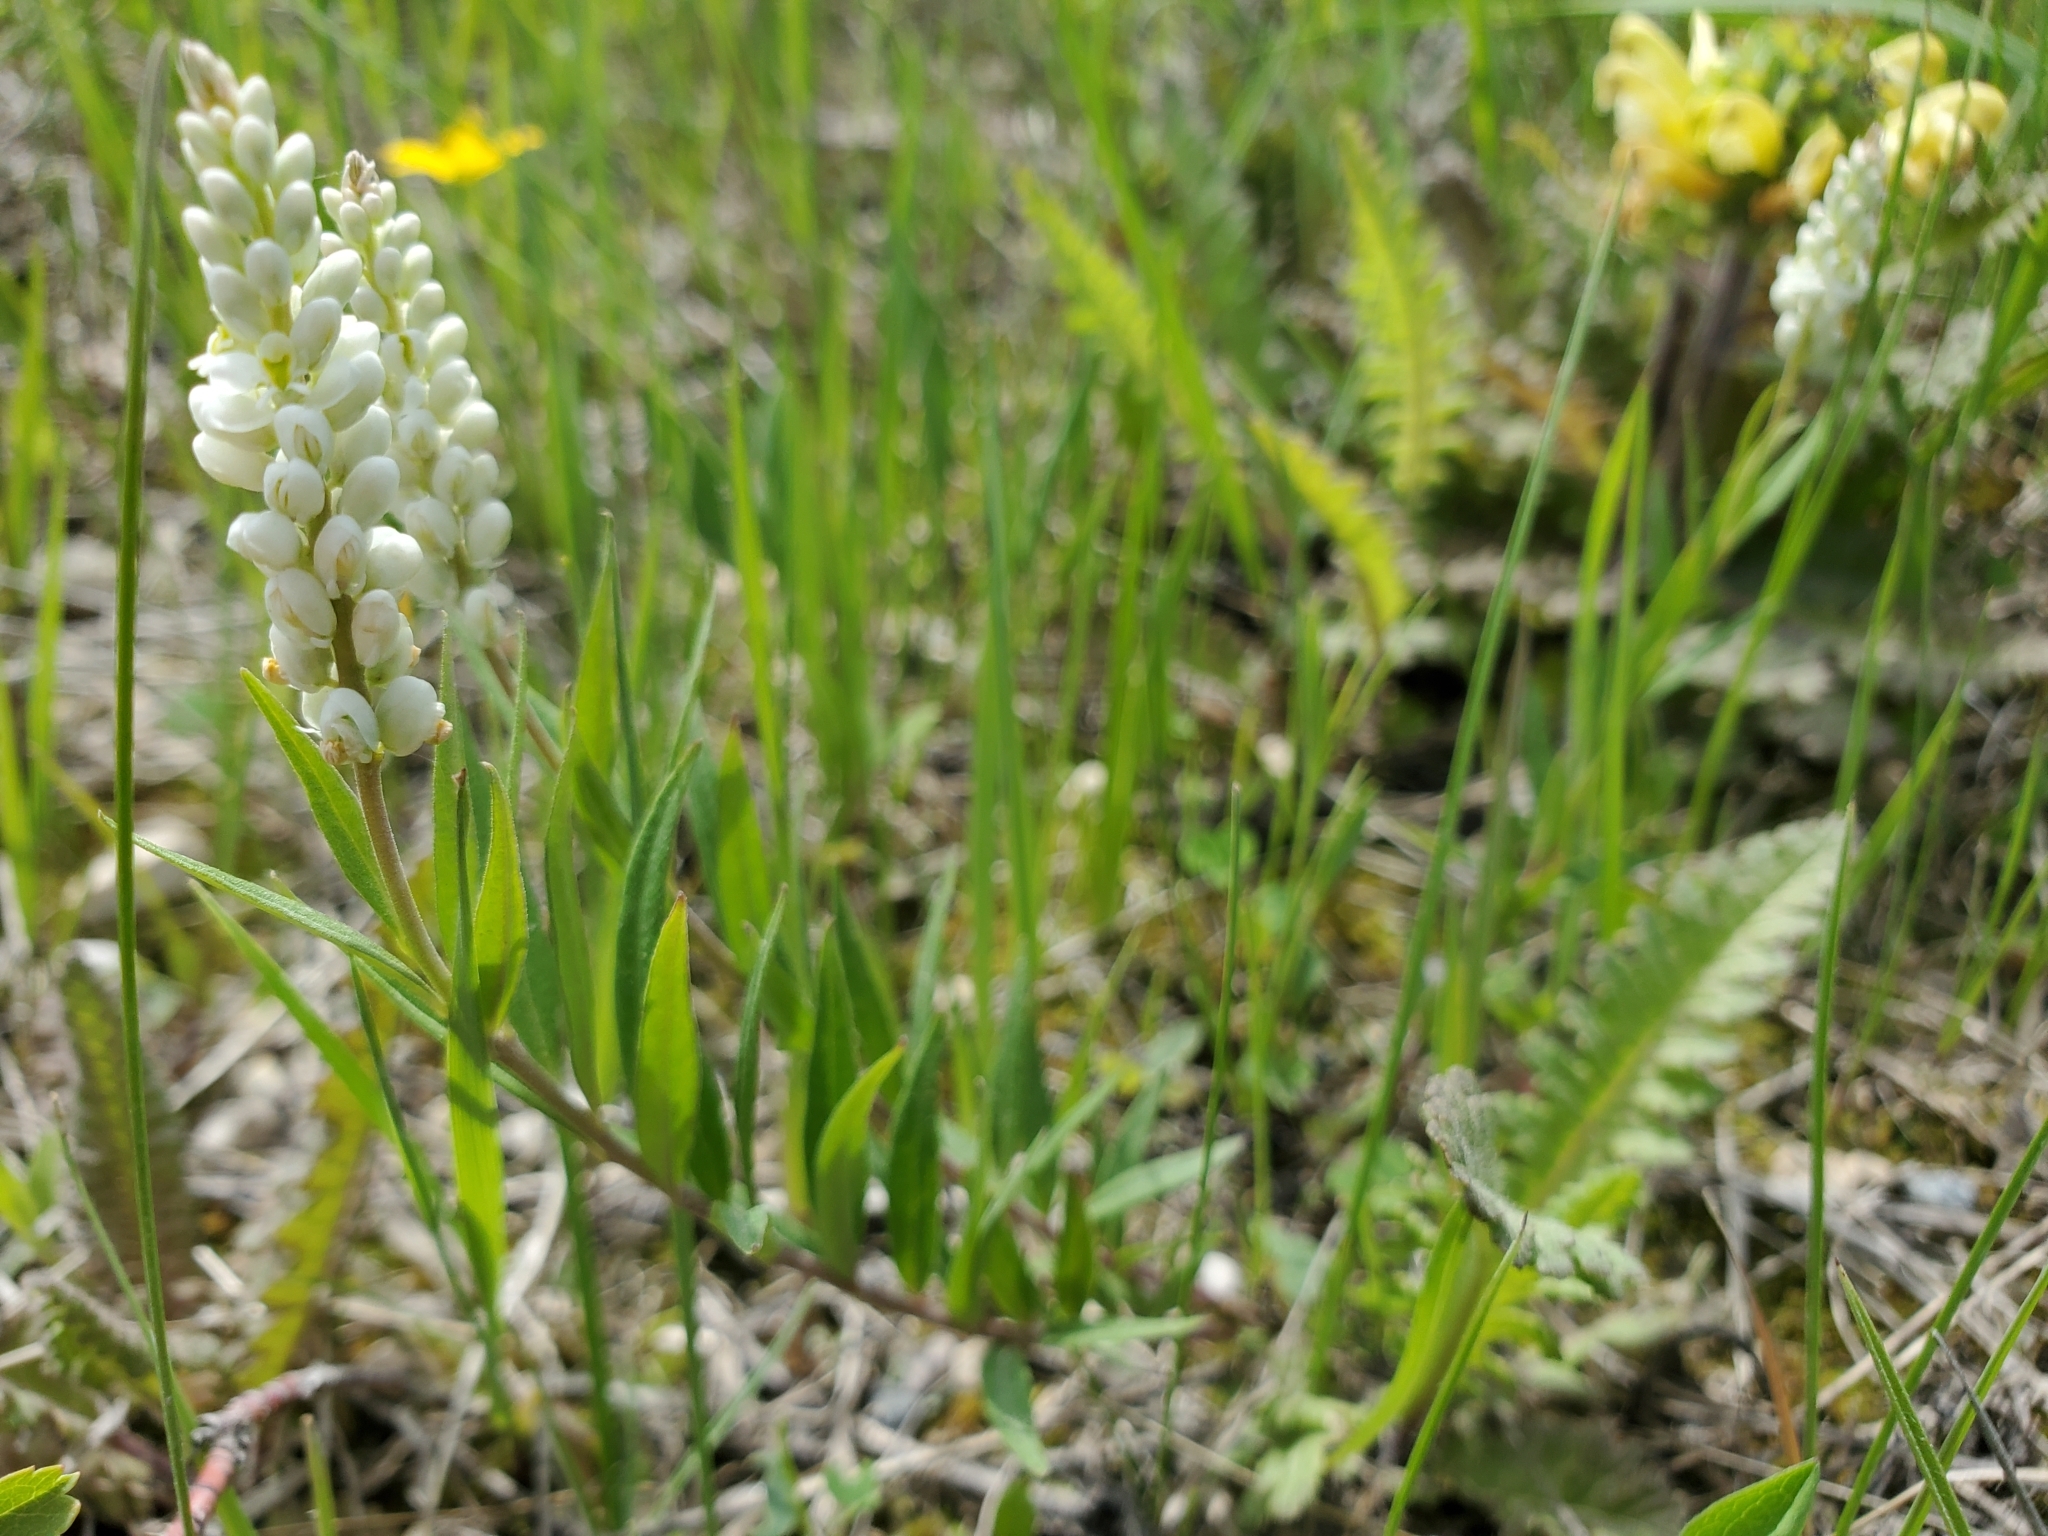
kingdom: Plantae
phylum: Tracheophyta
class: Magnoliopsida
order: Fabales
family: Polygalaceae
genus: Polygala
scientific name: Polygala senega
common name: Seneca snakeroot
